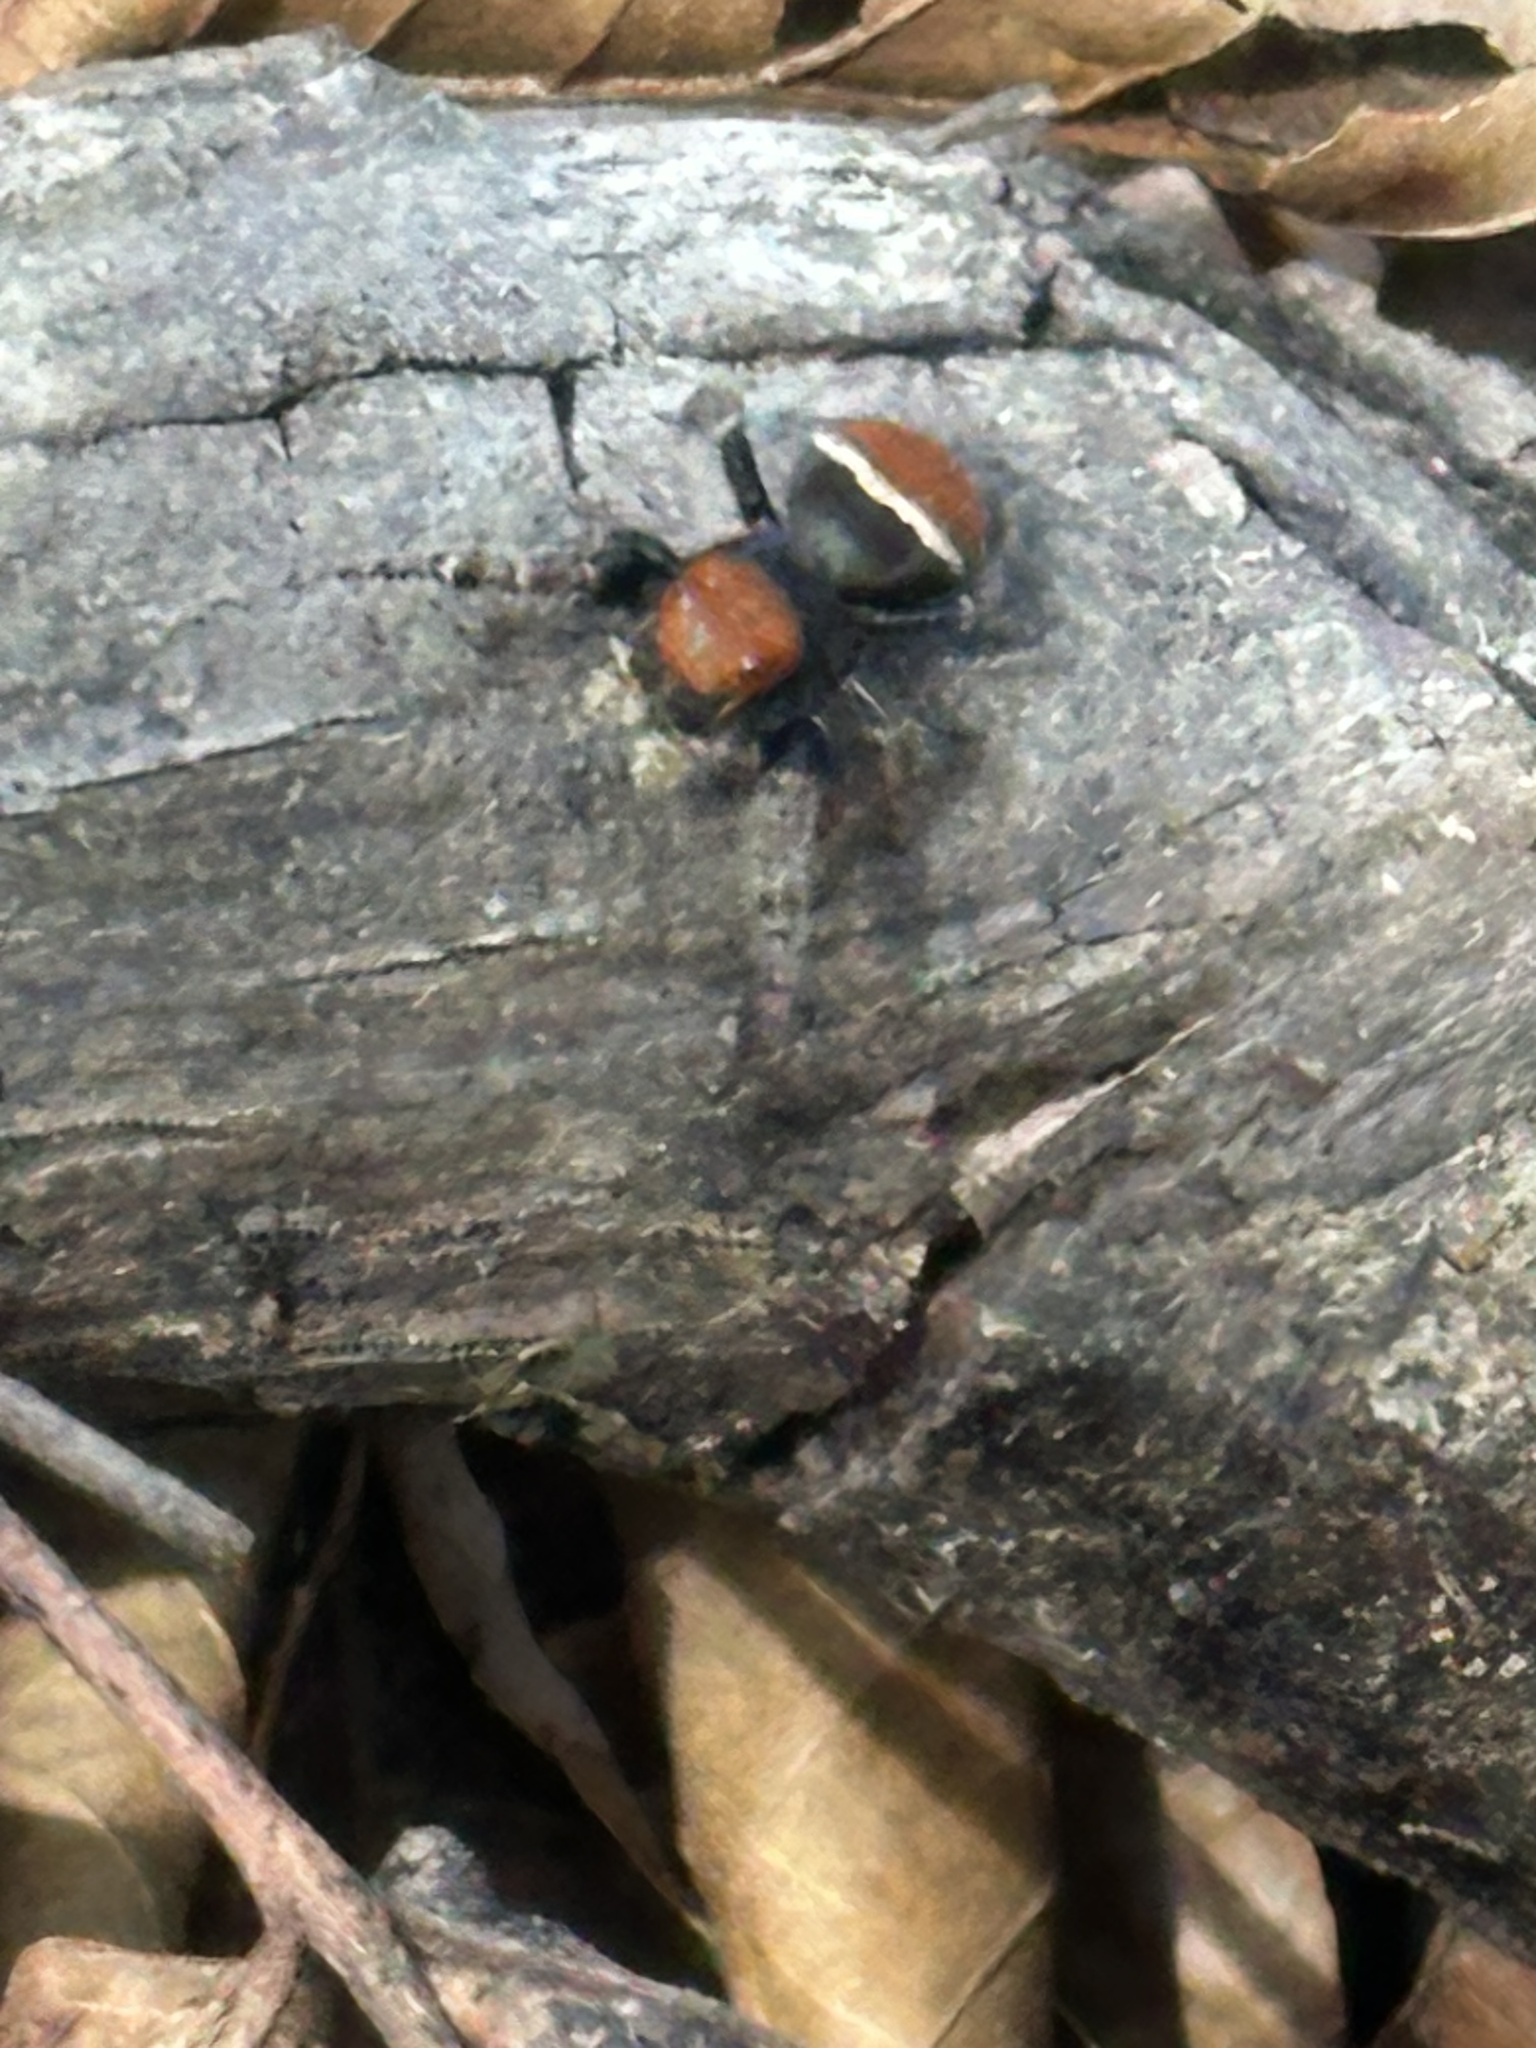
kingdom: Animalia
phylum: Arthropoda
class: Arachnida
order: Araneae
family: Salticidae
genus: Phidippus
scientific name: Phidippus whitmani
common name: Whitman's jumping spider
